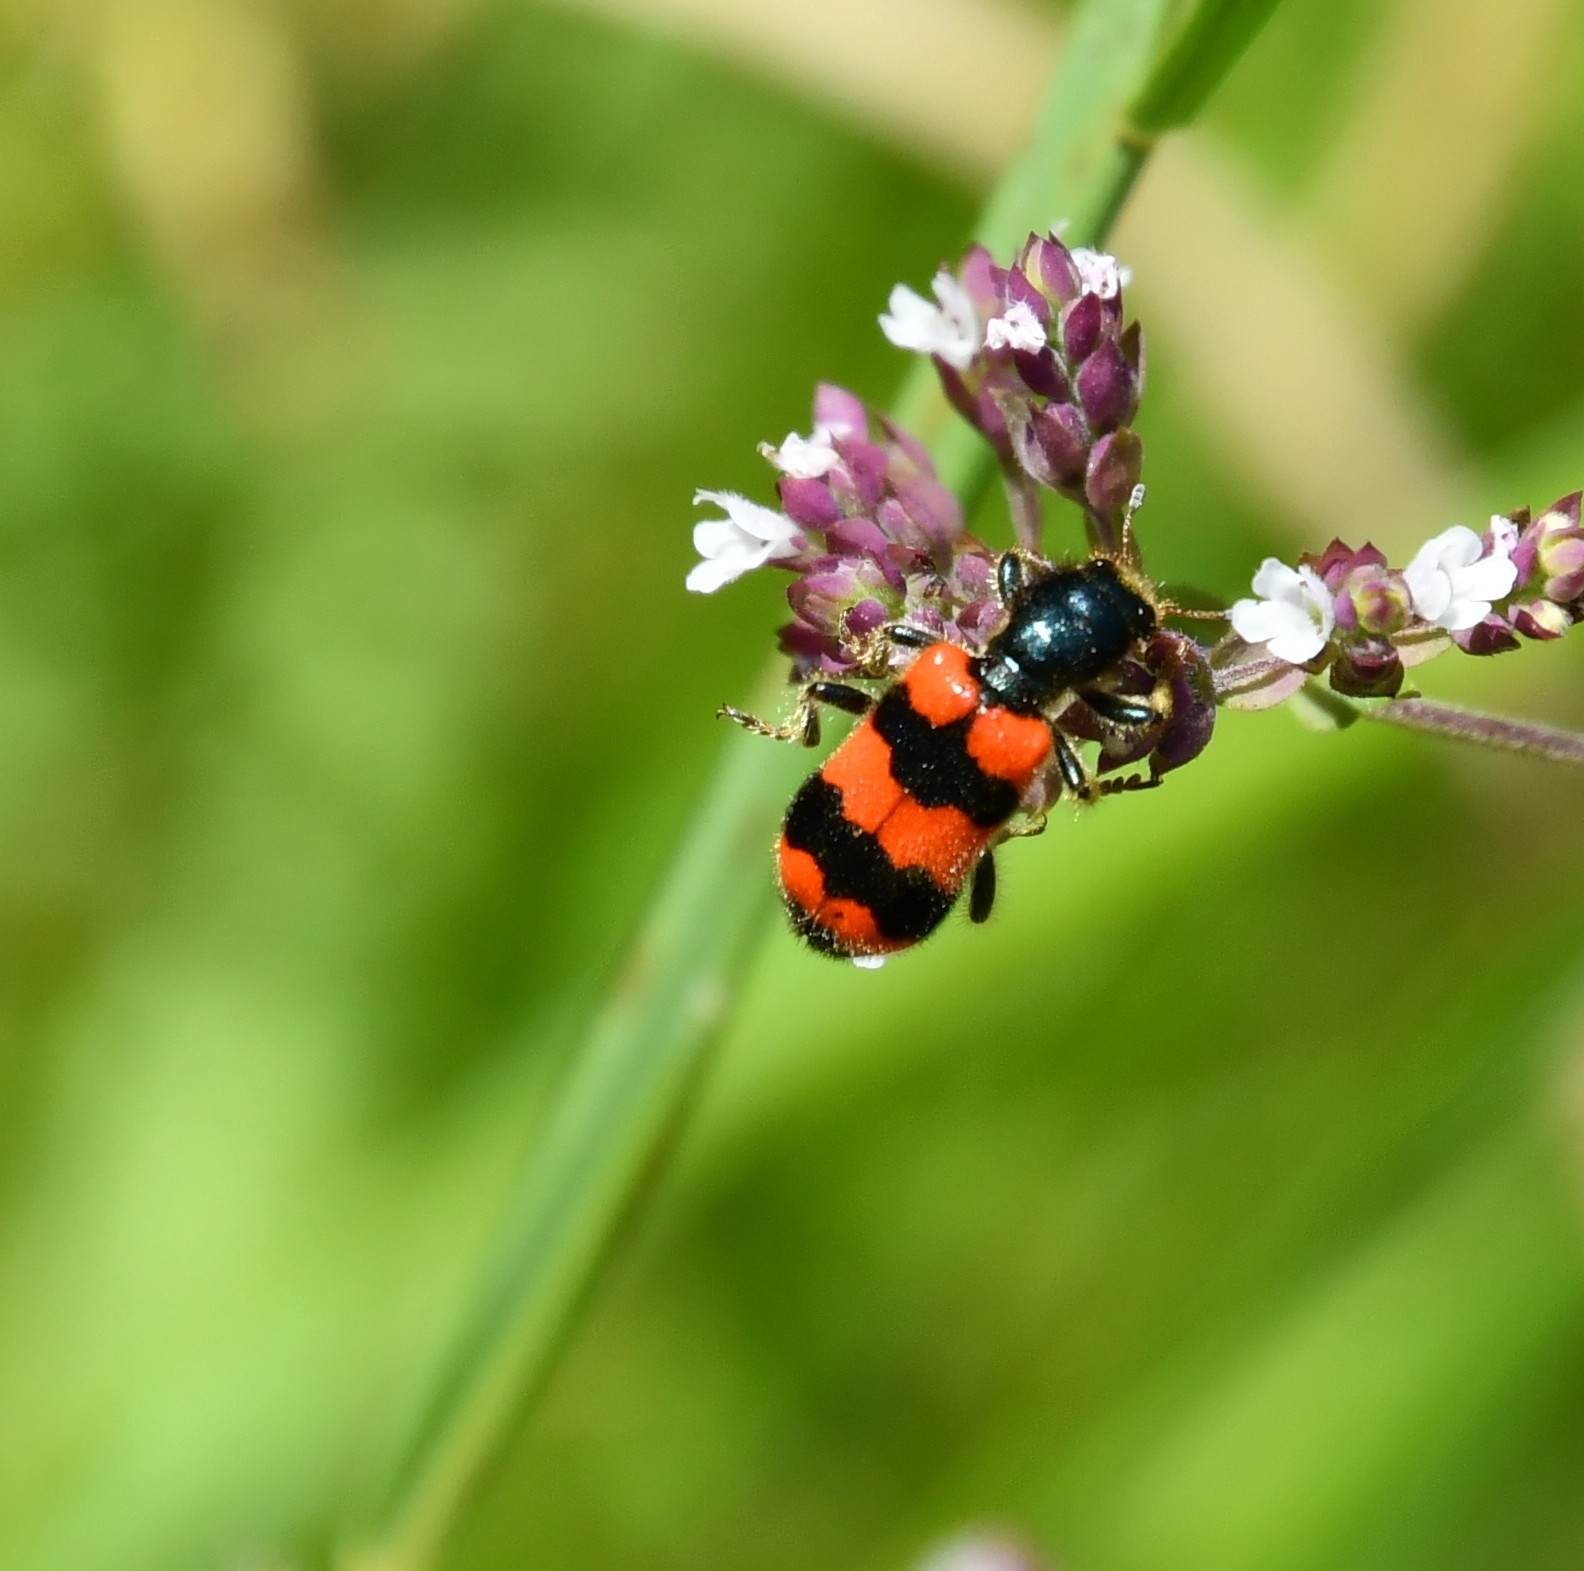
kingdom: Animalia
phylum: Arthropoda
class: Insecta
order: Coleoptera
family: Cleridae
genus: Trichodes
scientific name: Trichodes apiarius
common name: Bee-eating beetle
